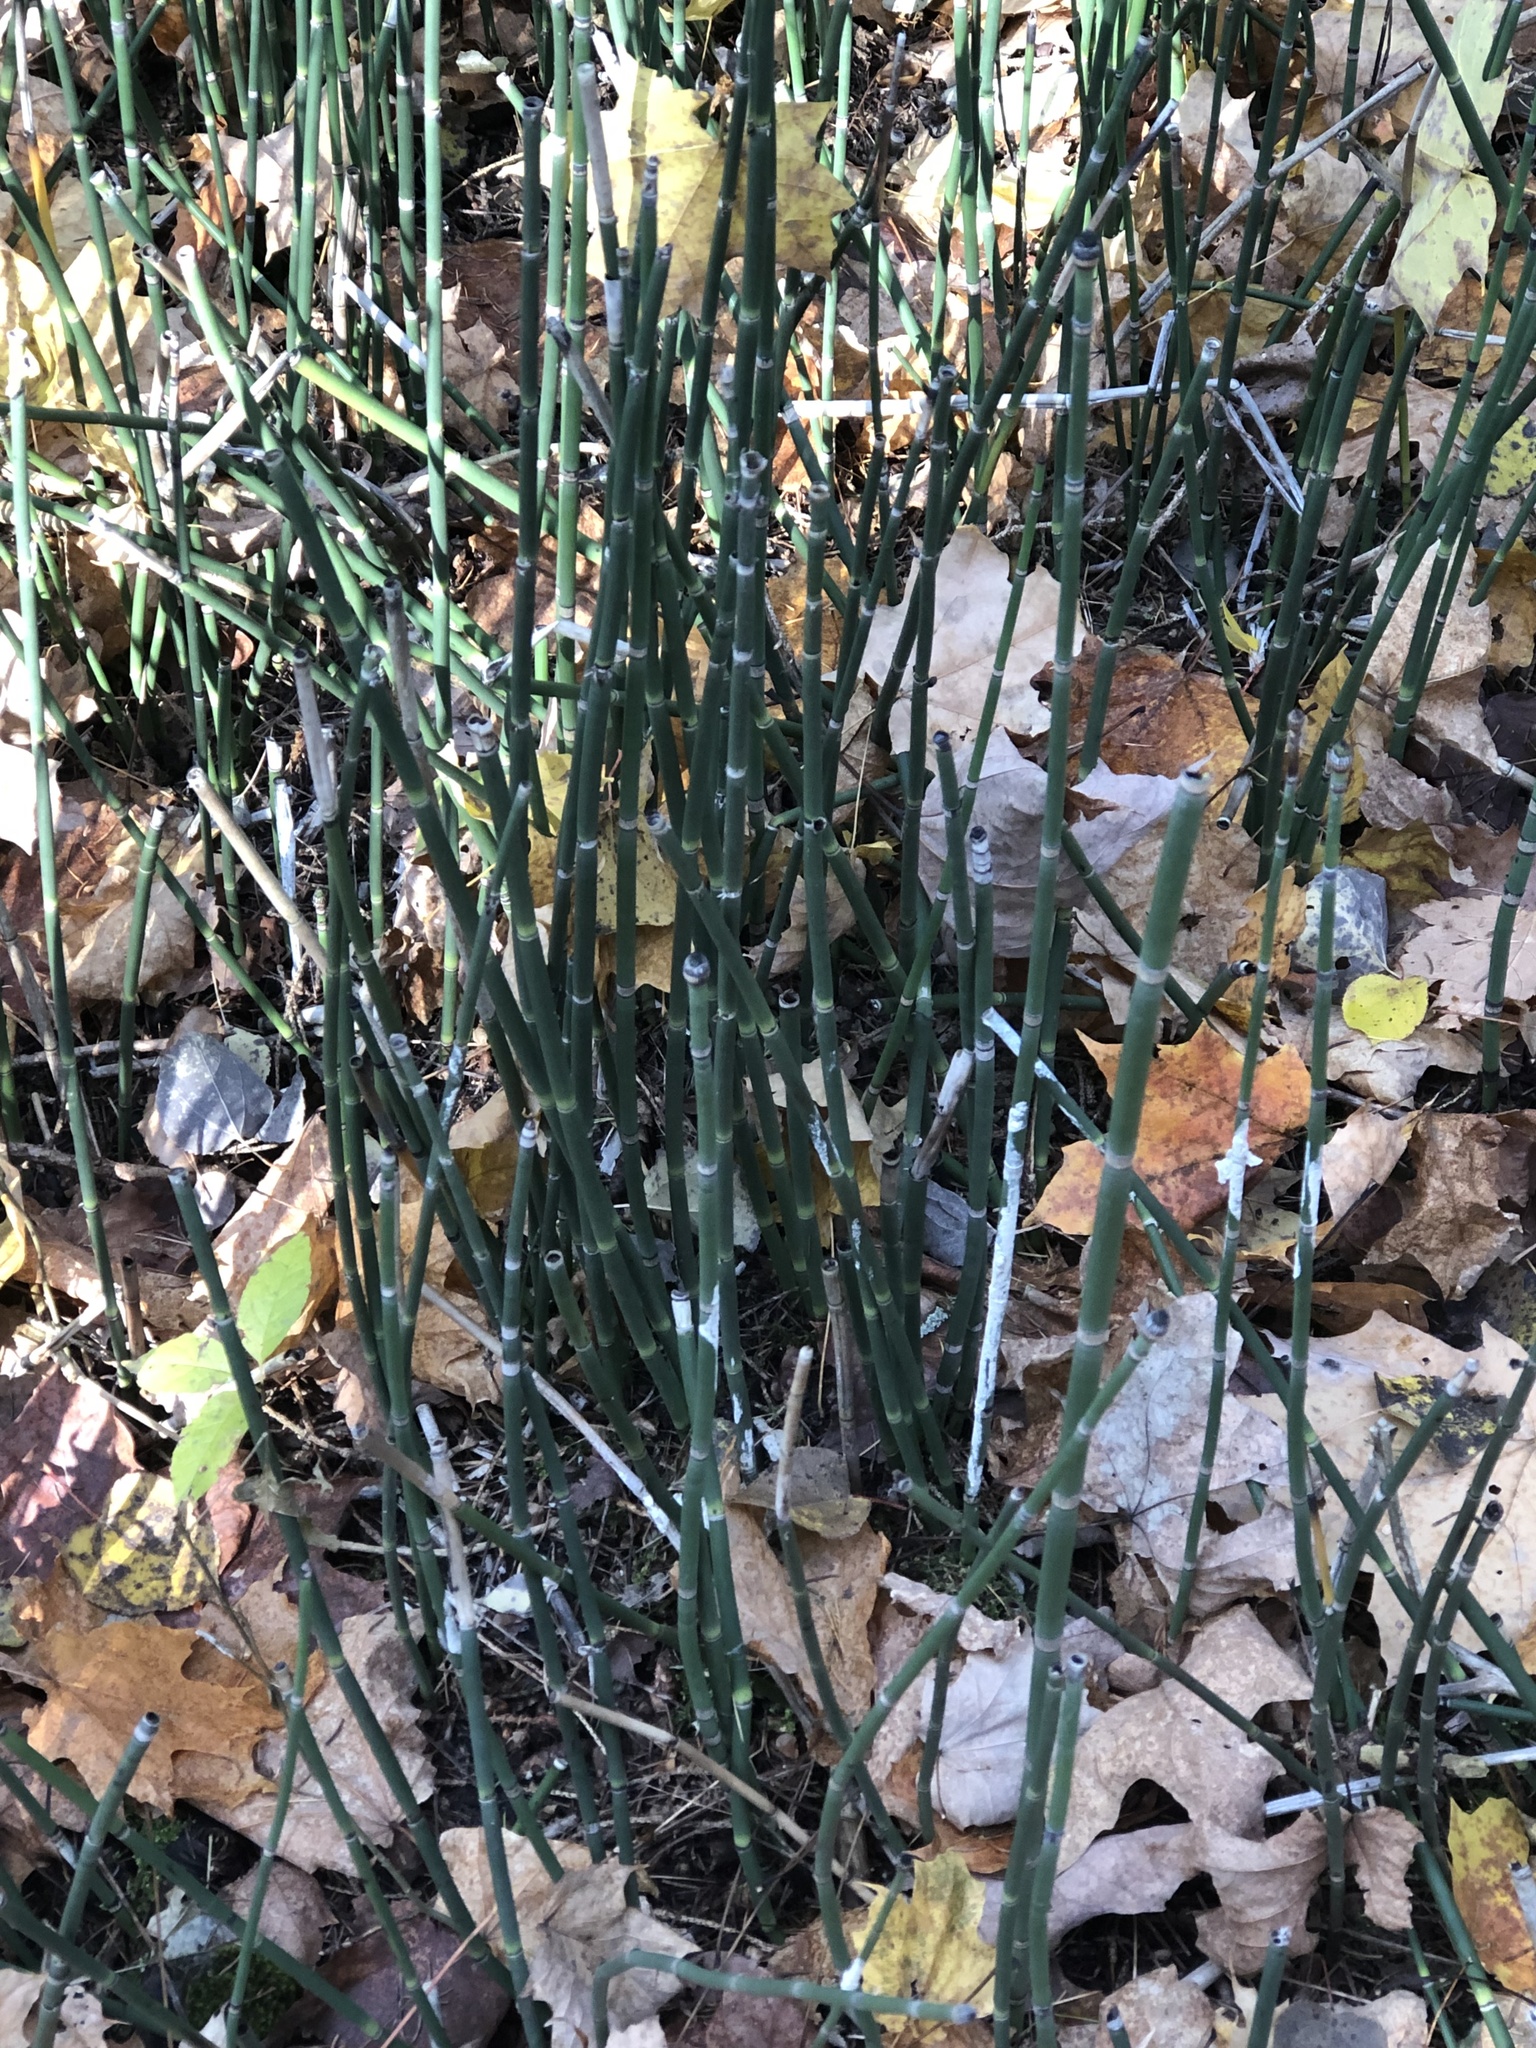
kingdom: Plantae
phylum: Tracheophyta
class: Polypodiopsida
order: Equisetales
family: Equisetaceae
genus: Equisetum
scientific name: Equisetum hyemale
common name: Rough horsetail
